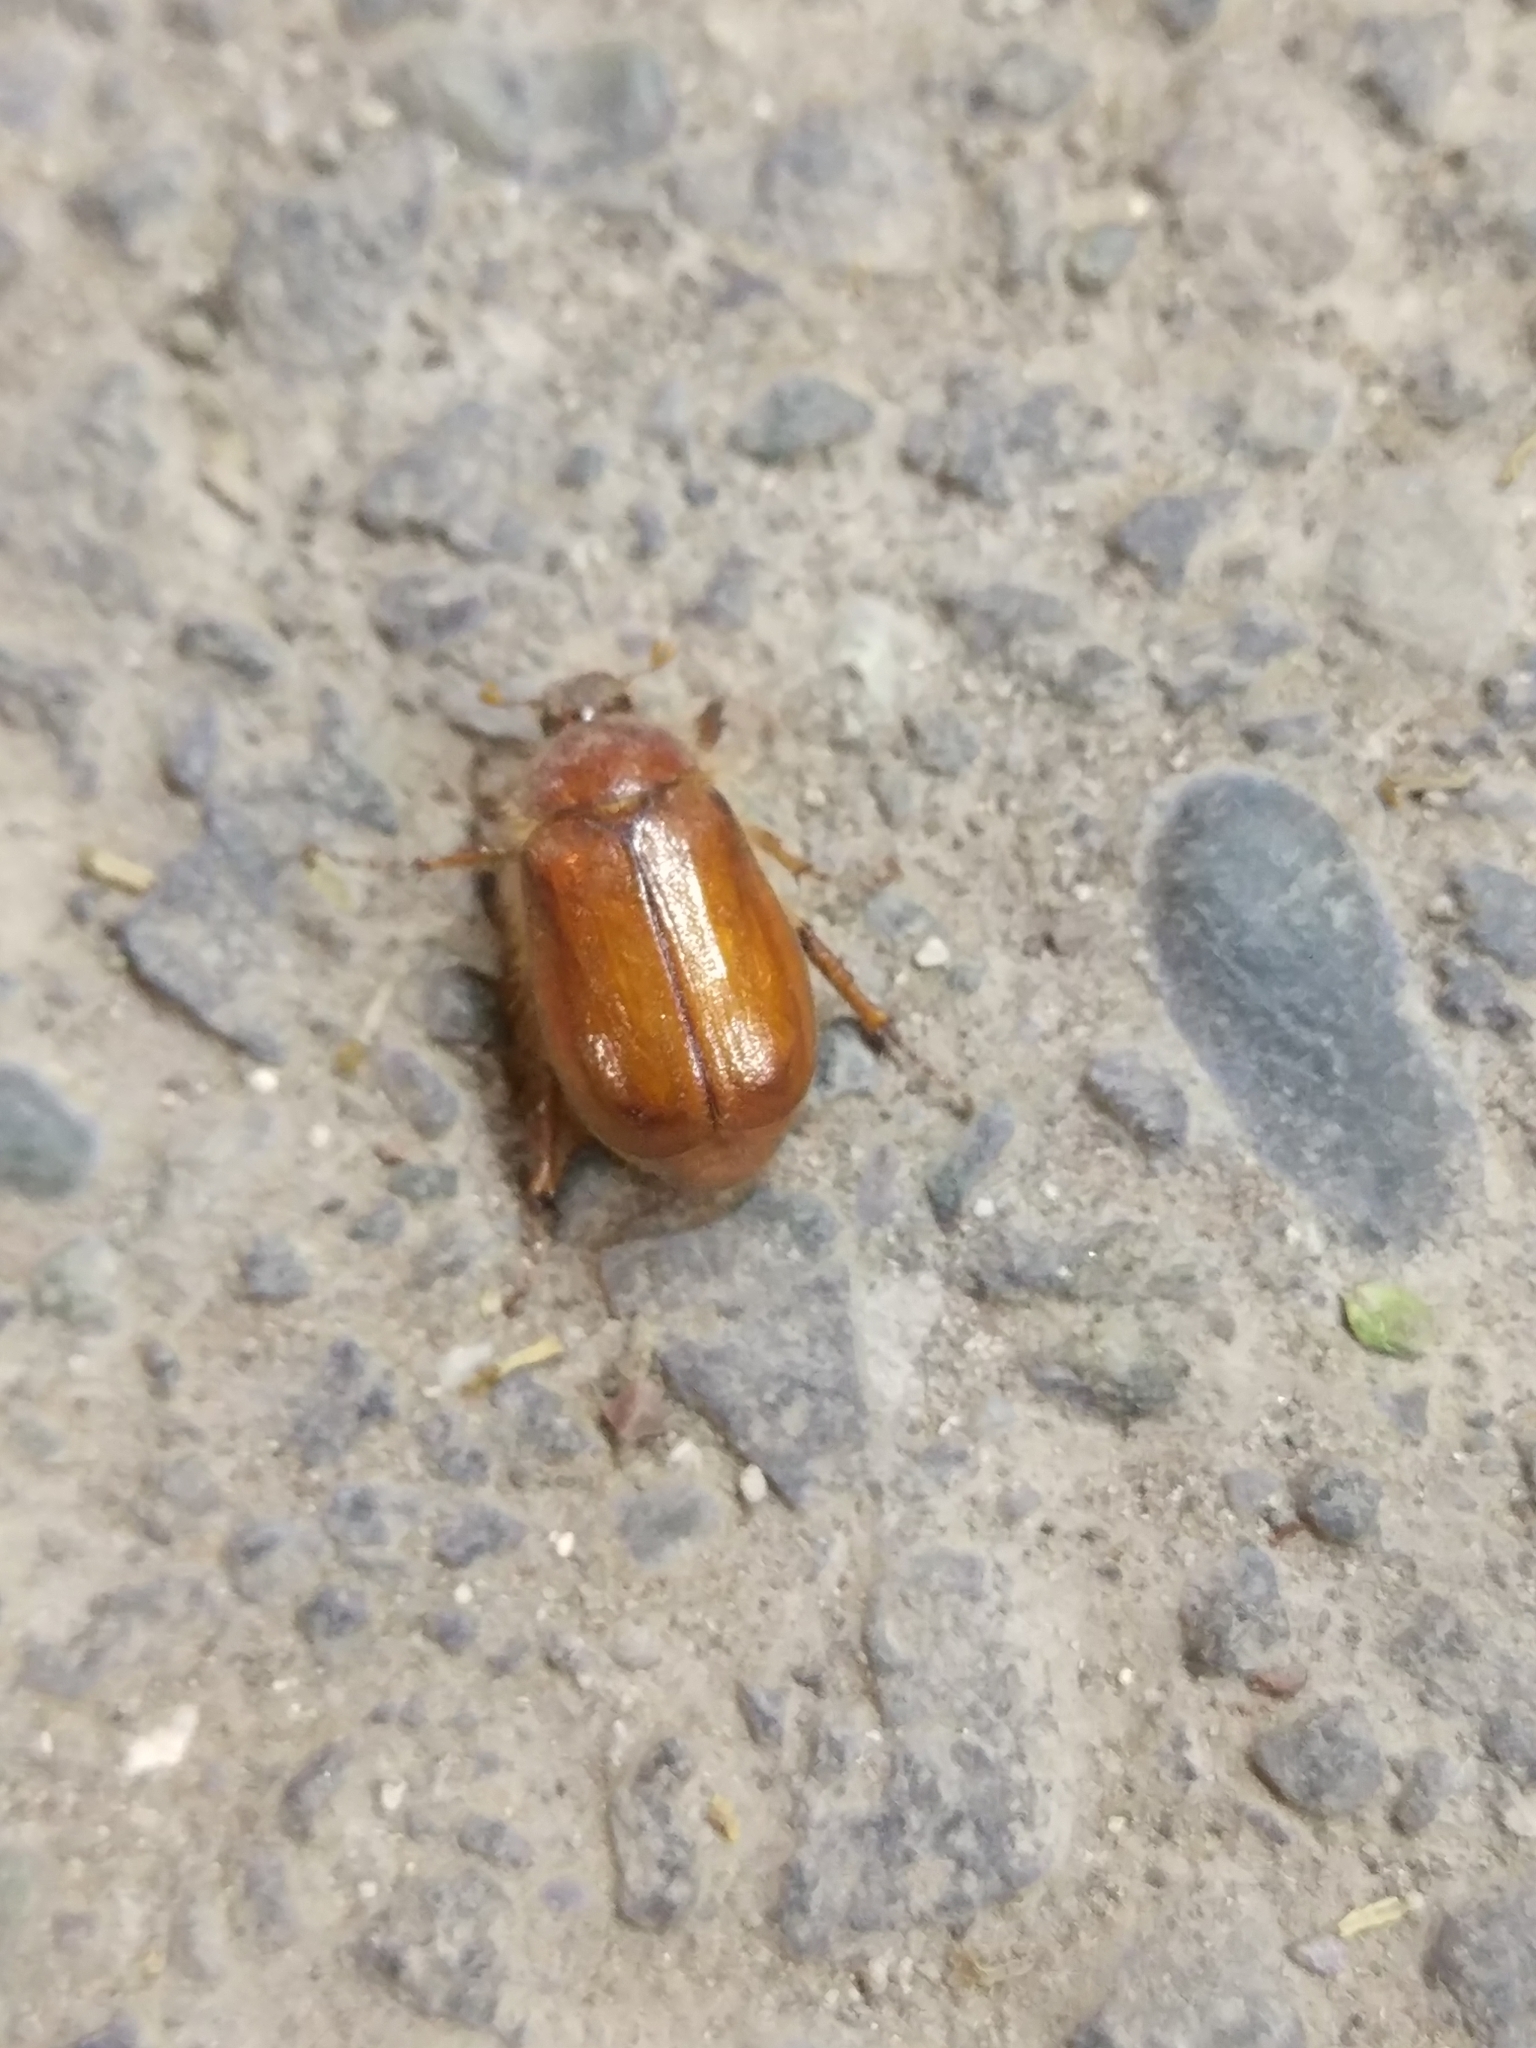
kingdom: Animalia
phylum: Arthropoda
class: Insecta
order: Coleoptera
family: Scarabaeidae
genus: Amphimallon
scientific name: Amphimallon solstitiale
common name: Summer chafer
